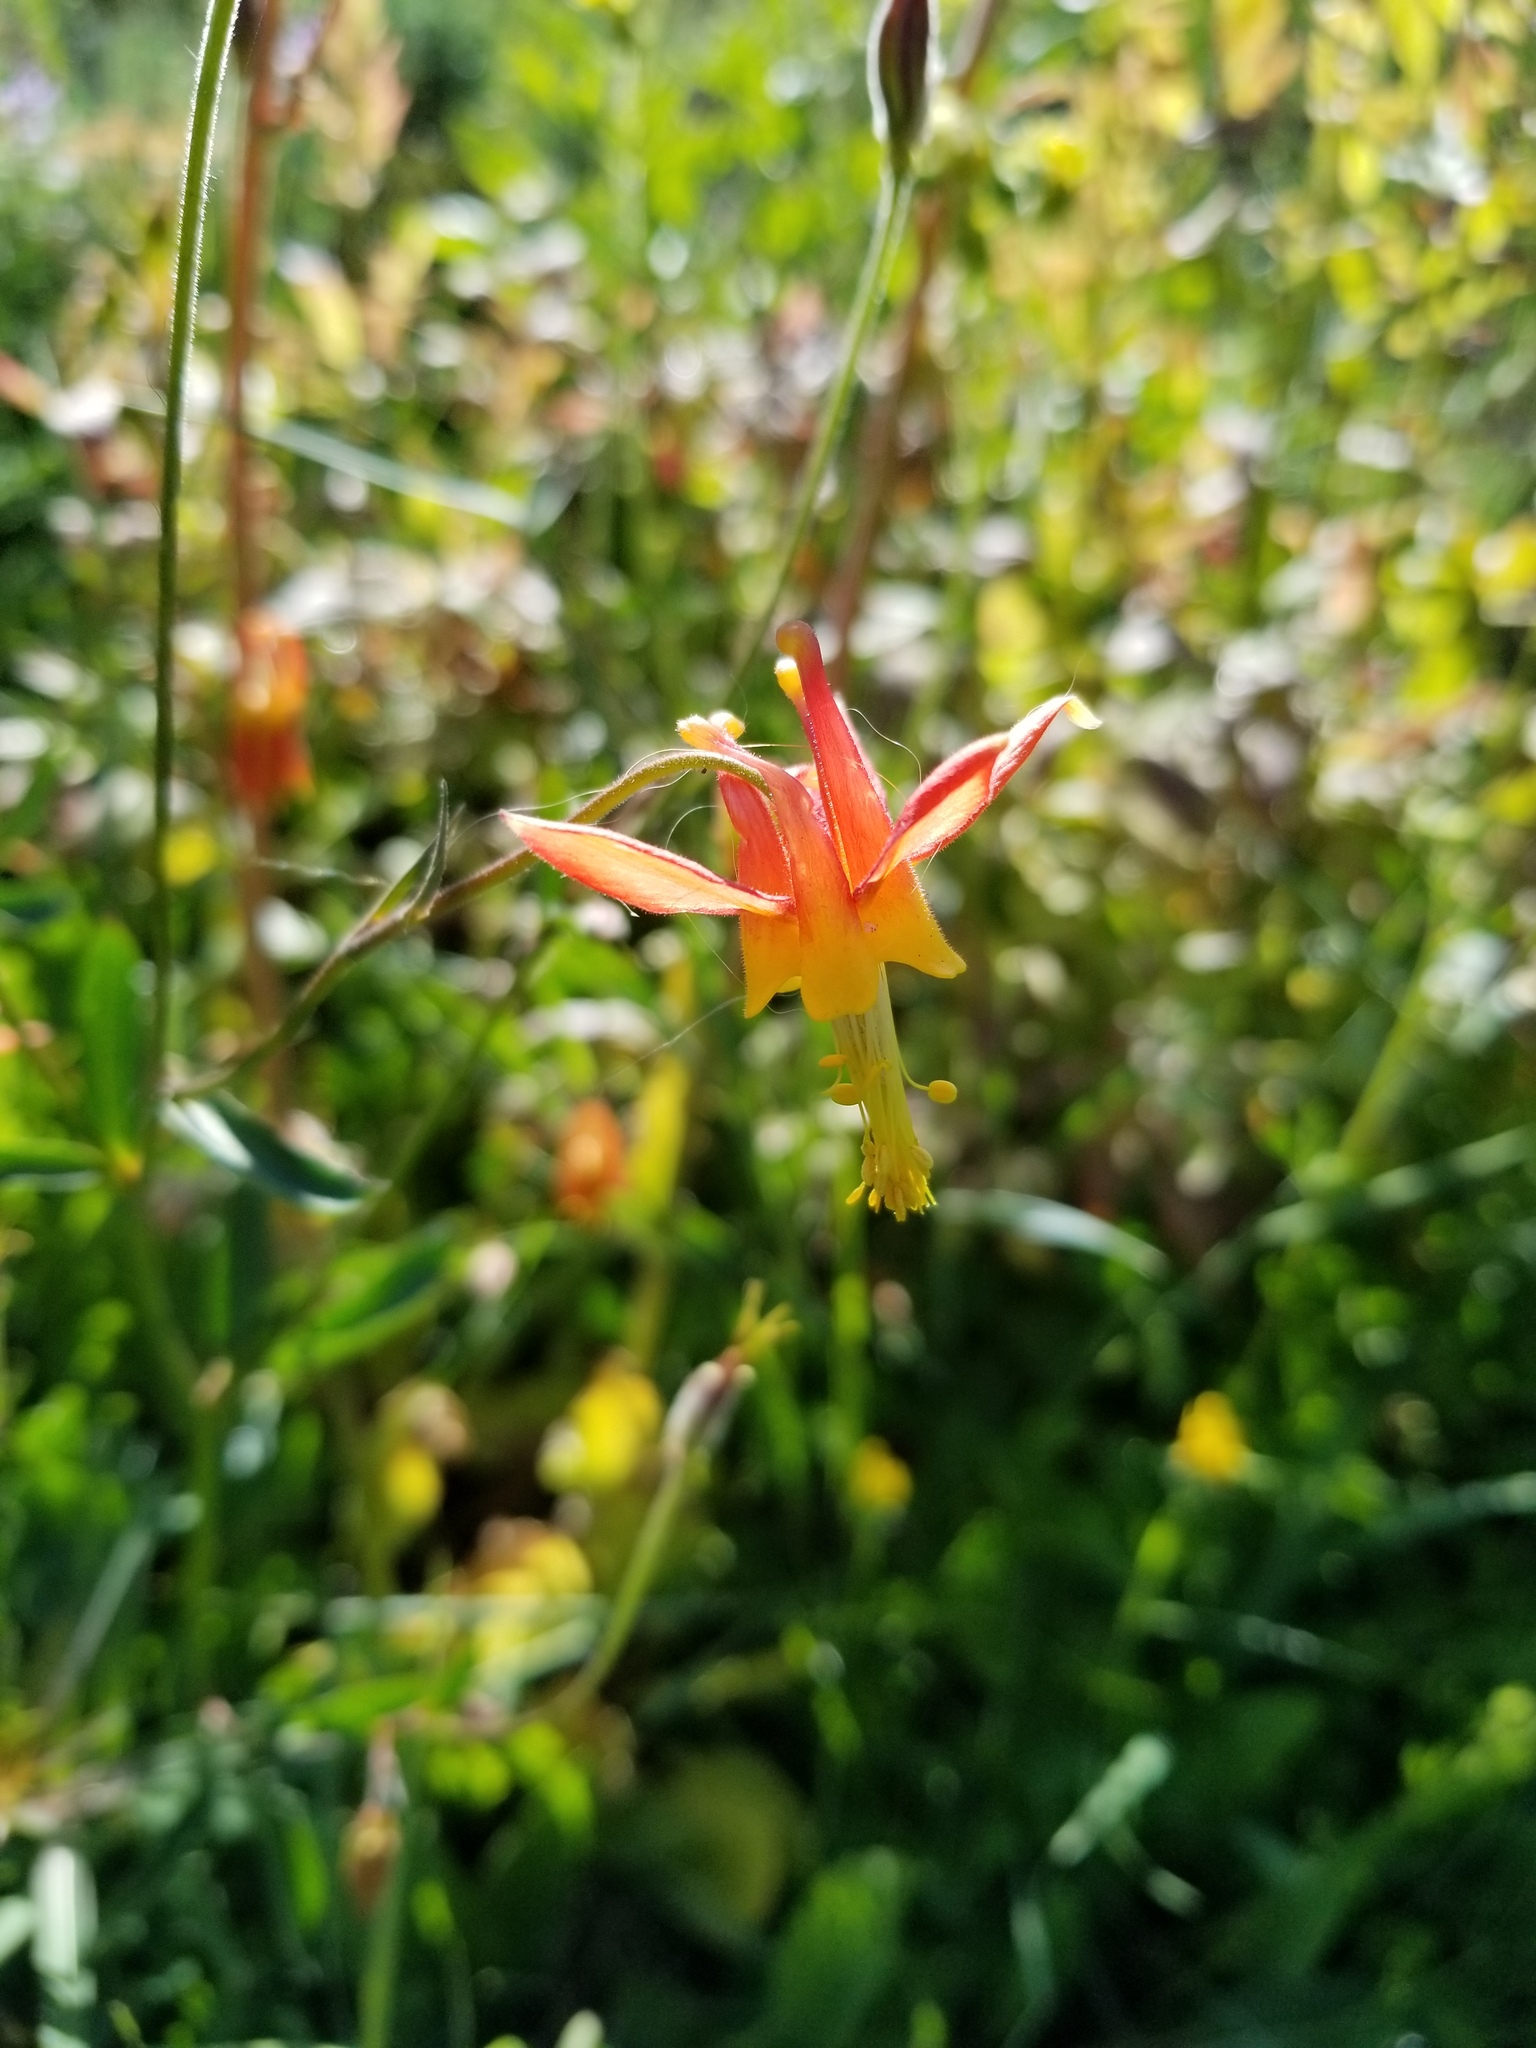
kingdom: Plantae
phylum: Tracheophyta
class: Magnoliopsida
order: Ranunculales
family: Ranunculaceae
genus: Aquilegia
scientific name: Aquilegia formosa
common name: Sitka columbine
